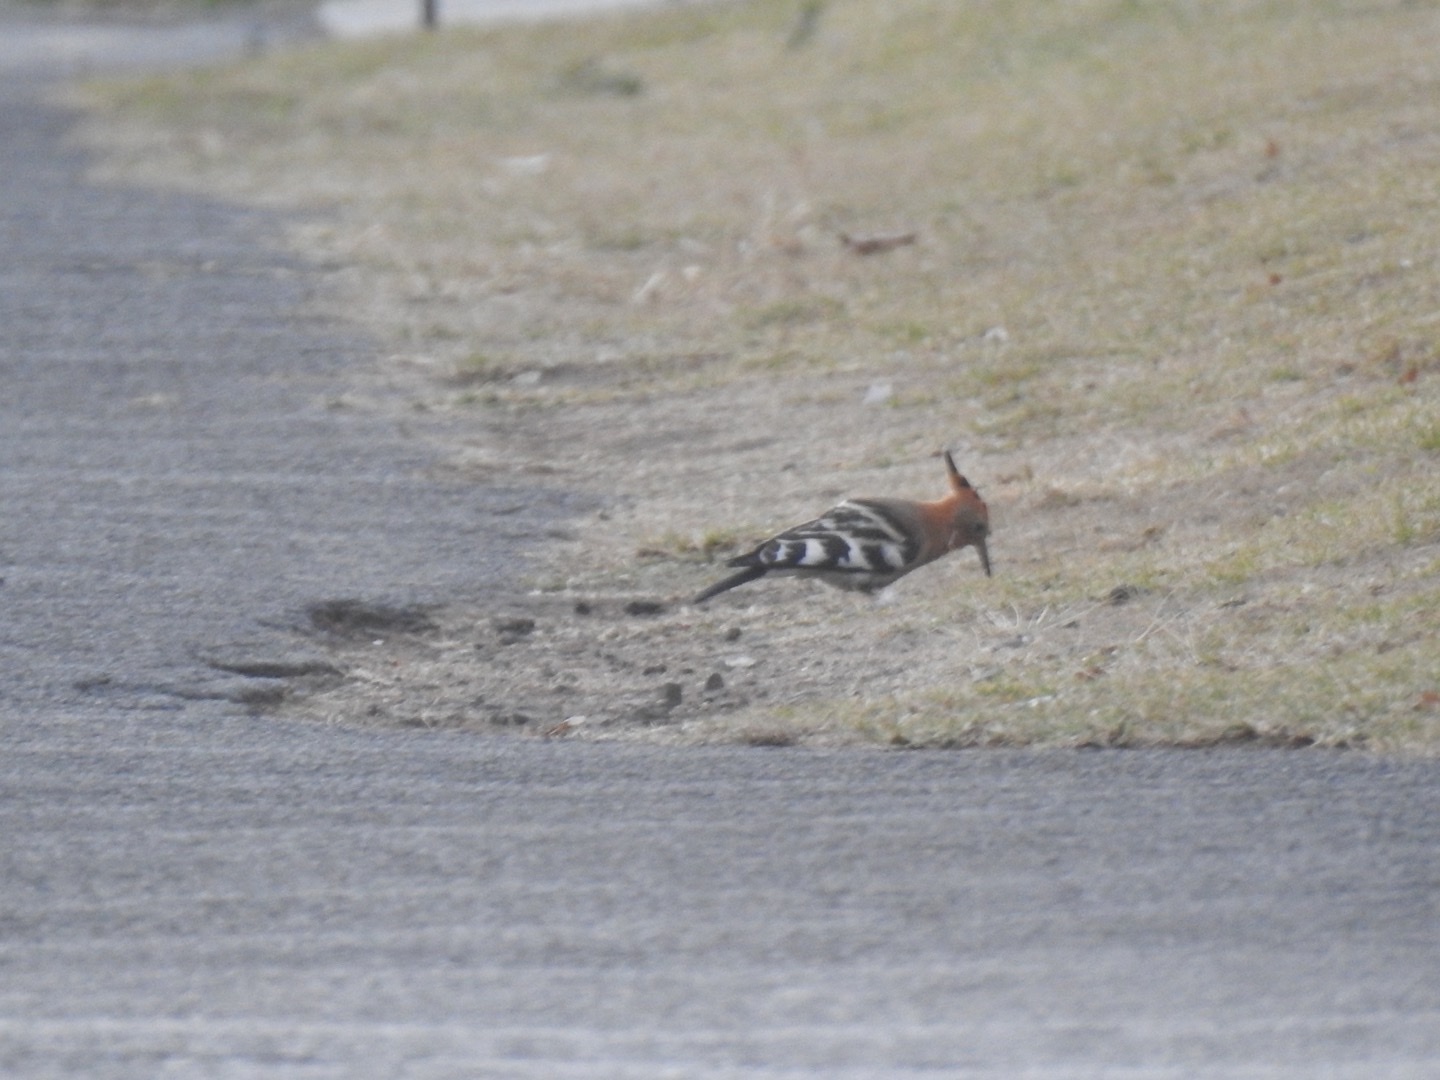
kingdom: Animalia
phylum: Chordata
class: Aves
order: Bucerotiformes
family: Upupidae
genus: Upupa
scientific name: Upupa africana
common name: African hoopoe
